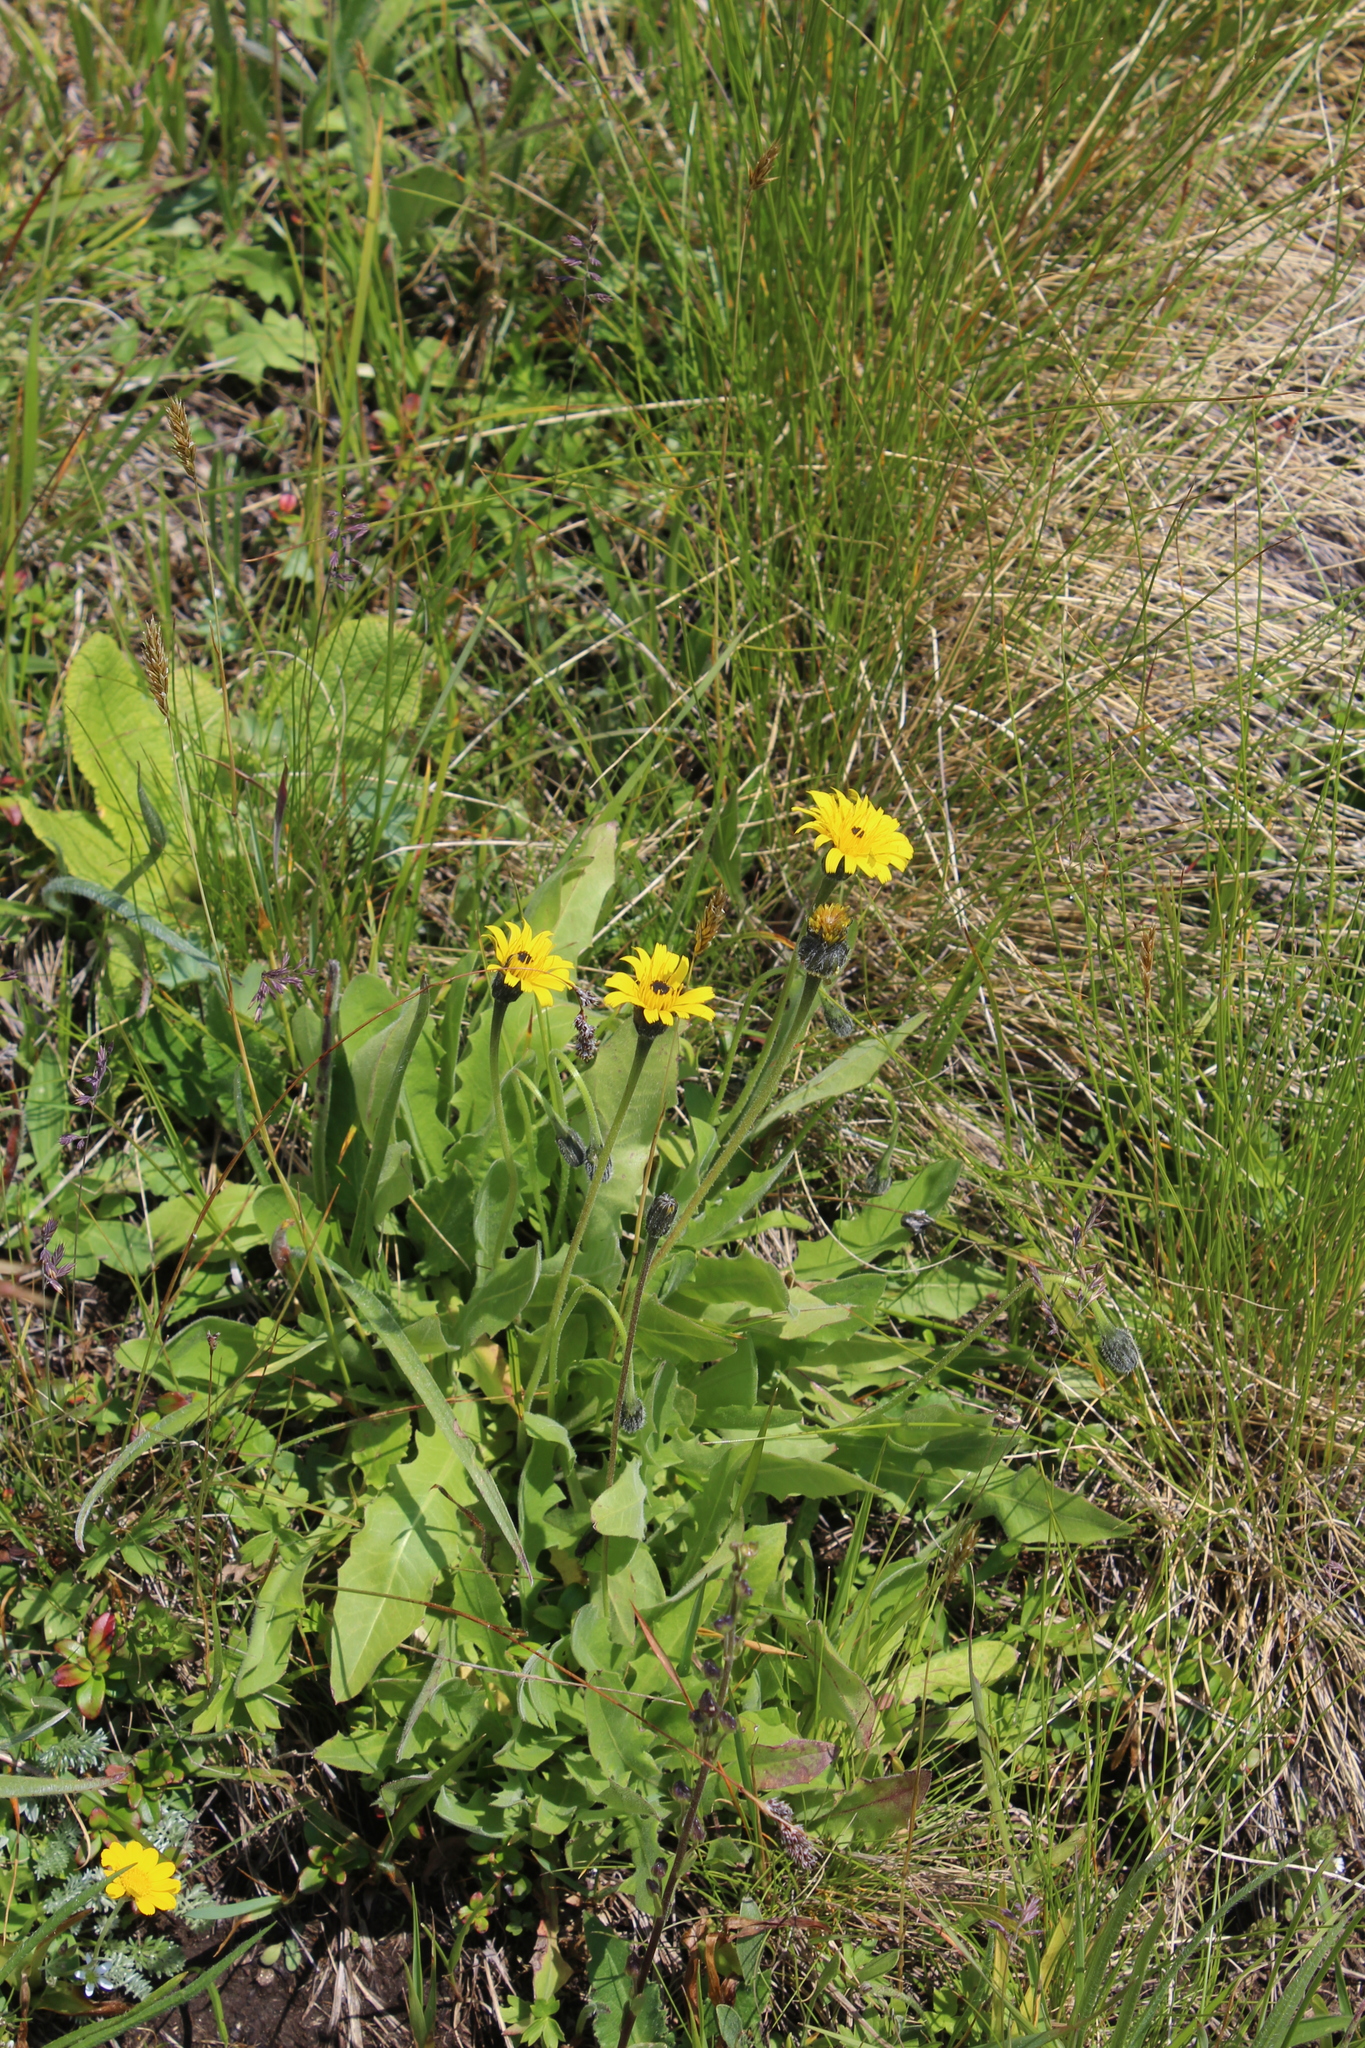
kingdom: Plantae
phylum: Tracheophyta
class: Magnoliopsida
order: Asterales
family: Asteraceae
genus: Leontodon
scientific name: Leontodon caucasicus
